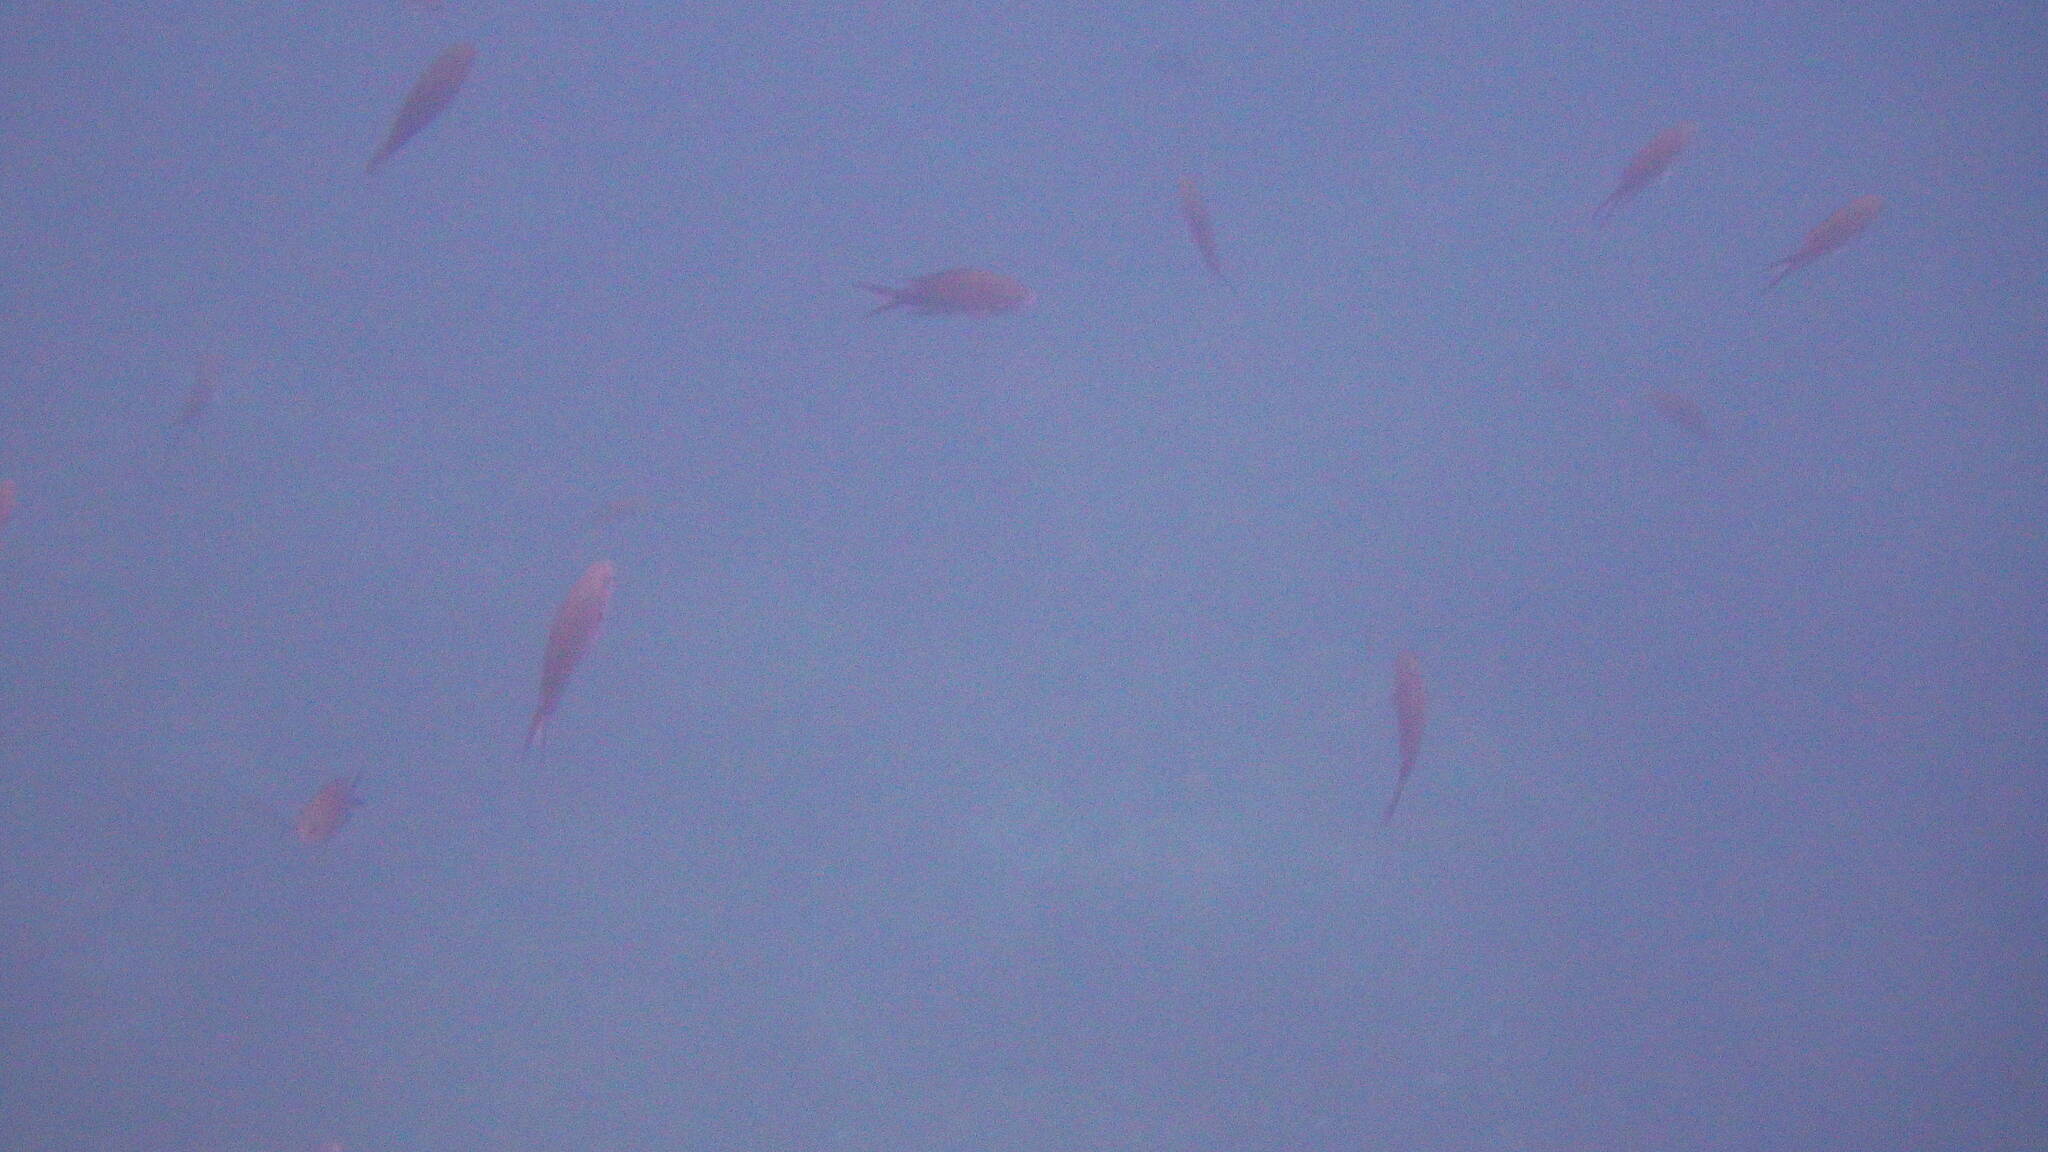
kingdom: Animalia
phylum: Chordata
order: Perciformes
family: Pomacentridae
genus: Chromis
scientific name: Chromis chromis
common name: Damselfish
